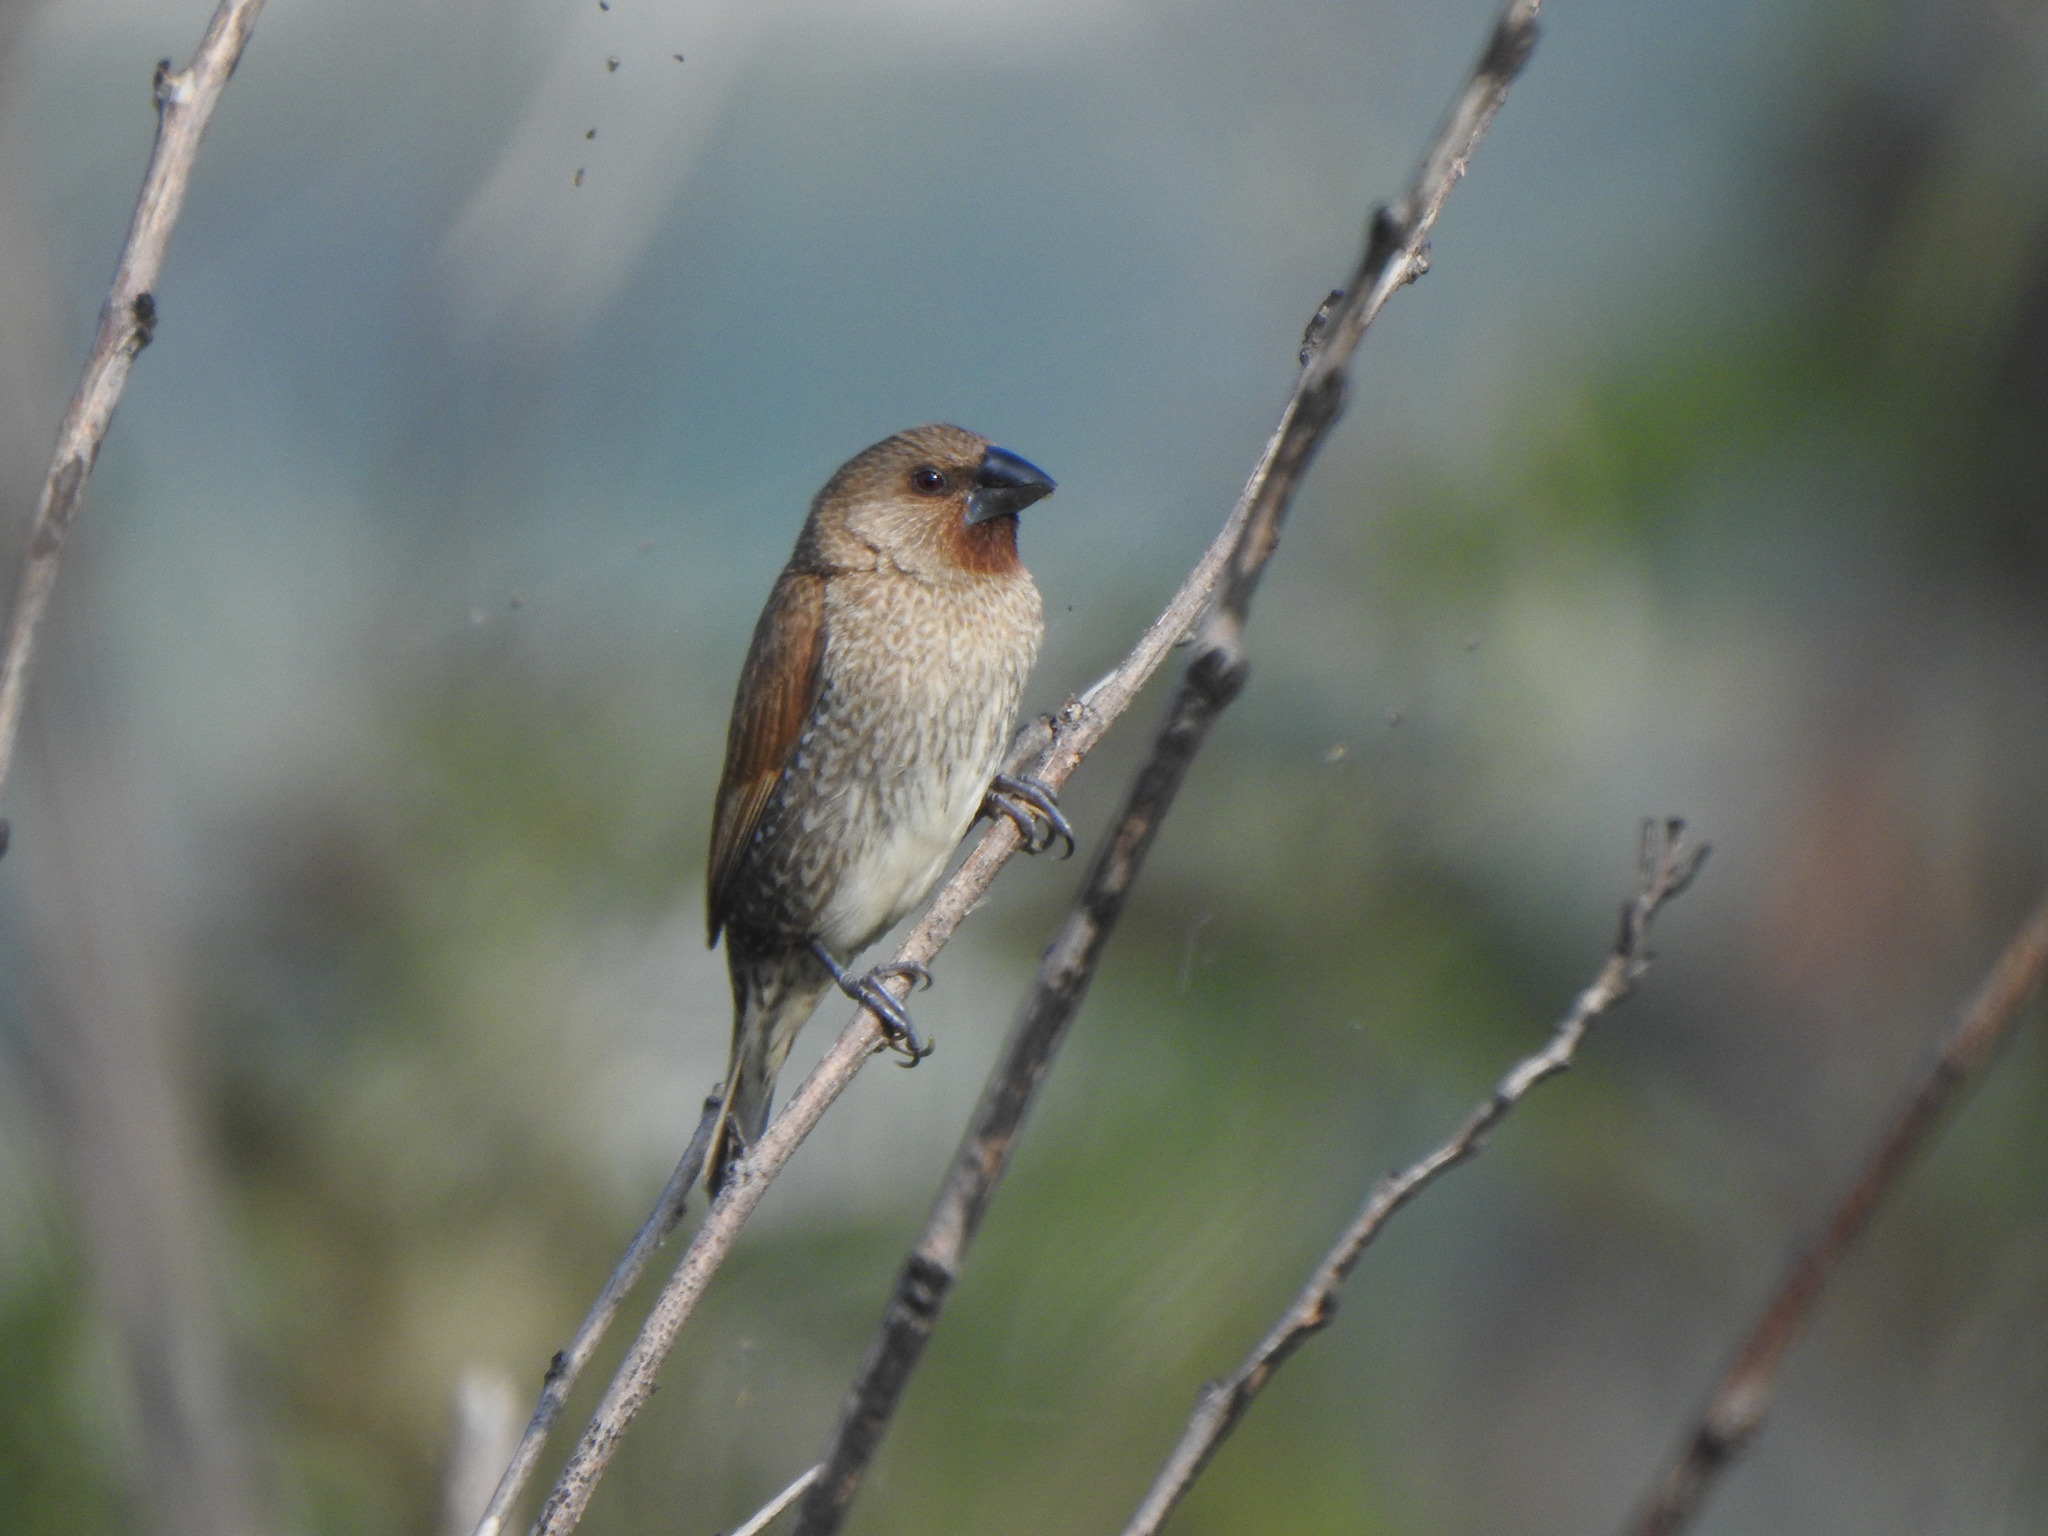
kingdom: Animalia
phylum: Chordata
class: Aves
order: Passeriformes
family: Estrildidae
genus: Lonchura
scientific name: Lonchura punctulata
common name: Scaly-breasted munia
